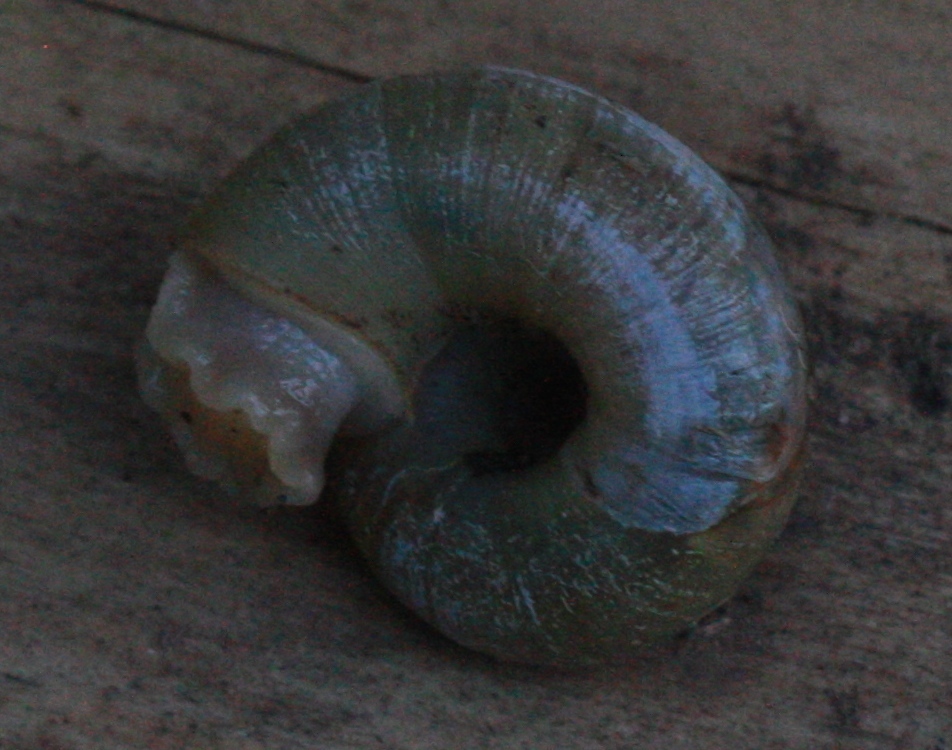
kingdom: Animalia
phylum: Mollusca
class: Gastropoda
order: Stylommatophora
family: Haplotrematidae
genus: Haplotrema
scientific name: Haplotrema minimum
